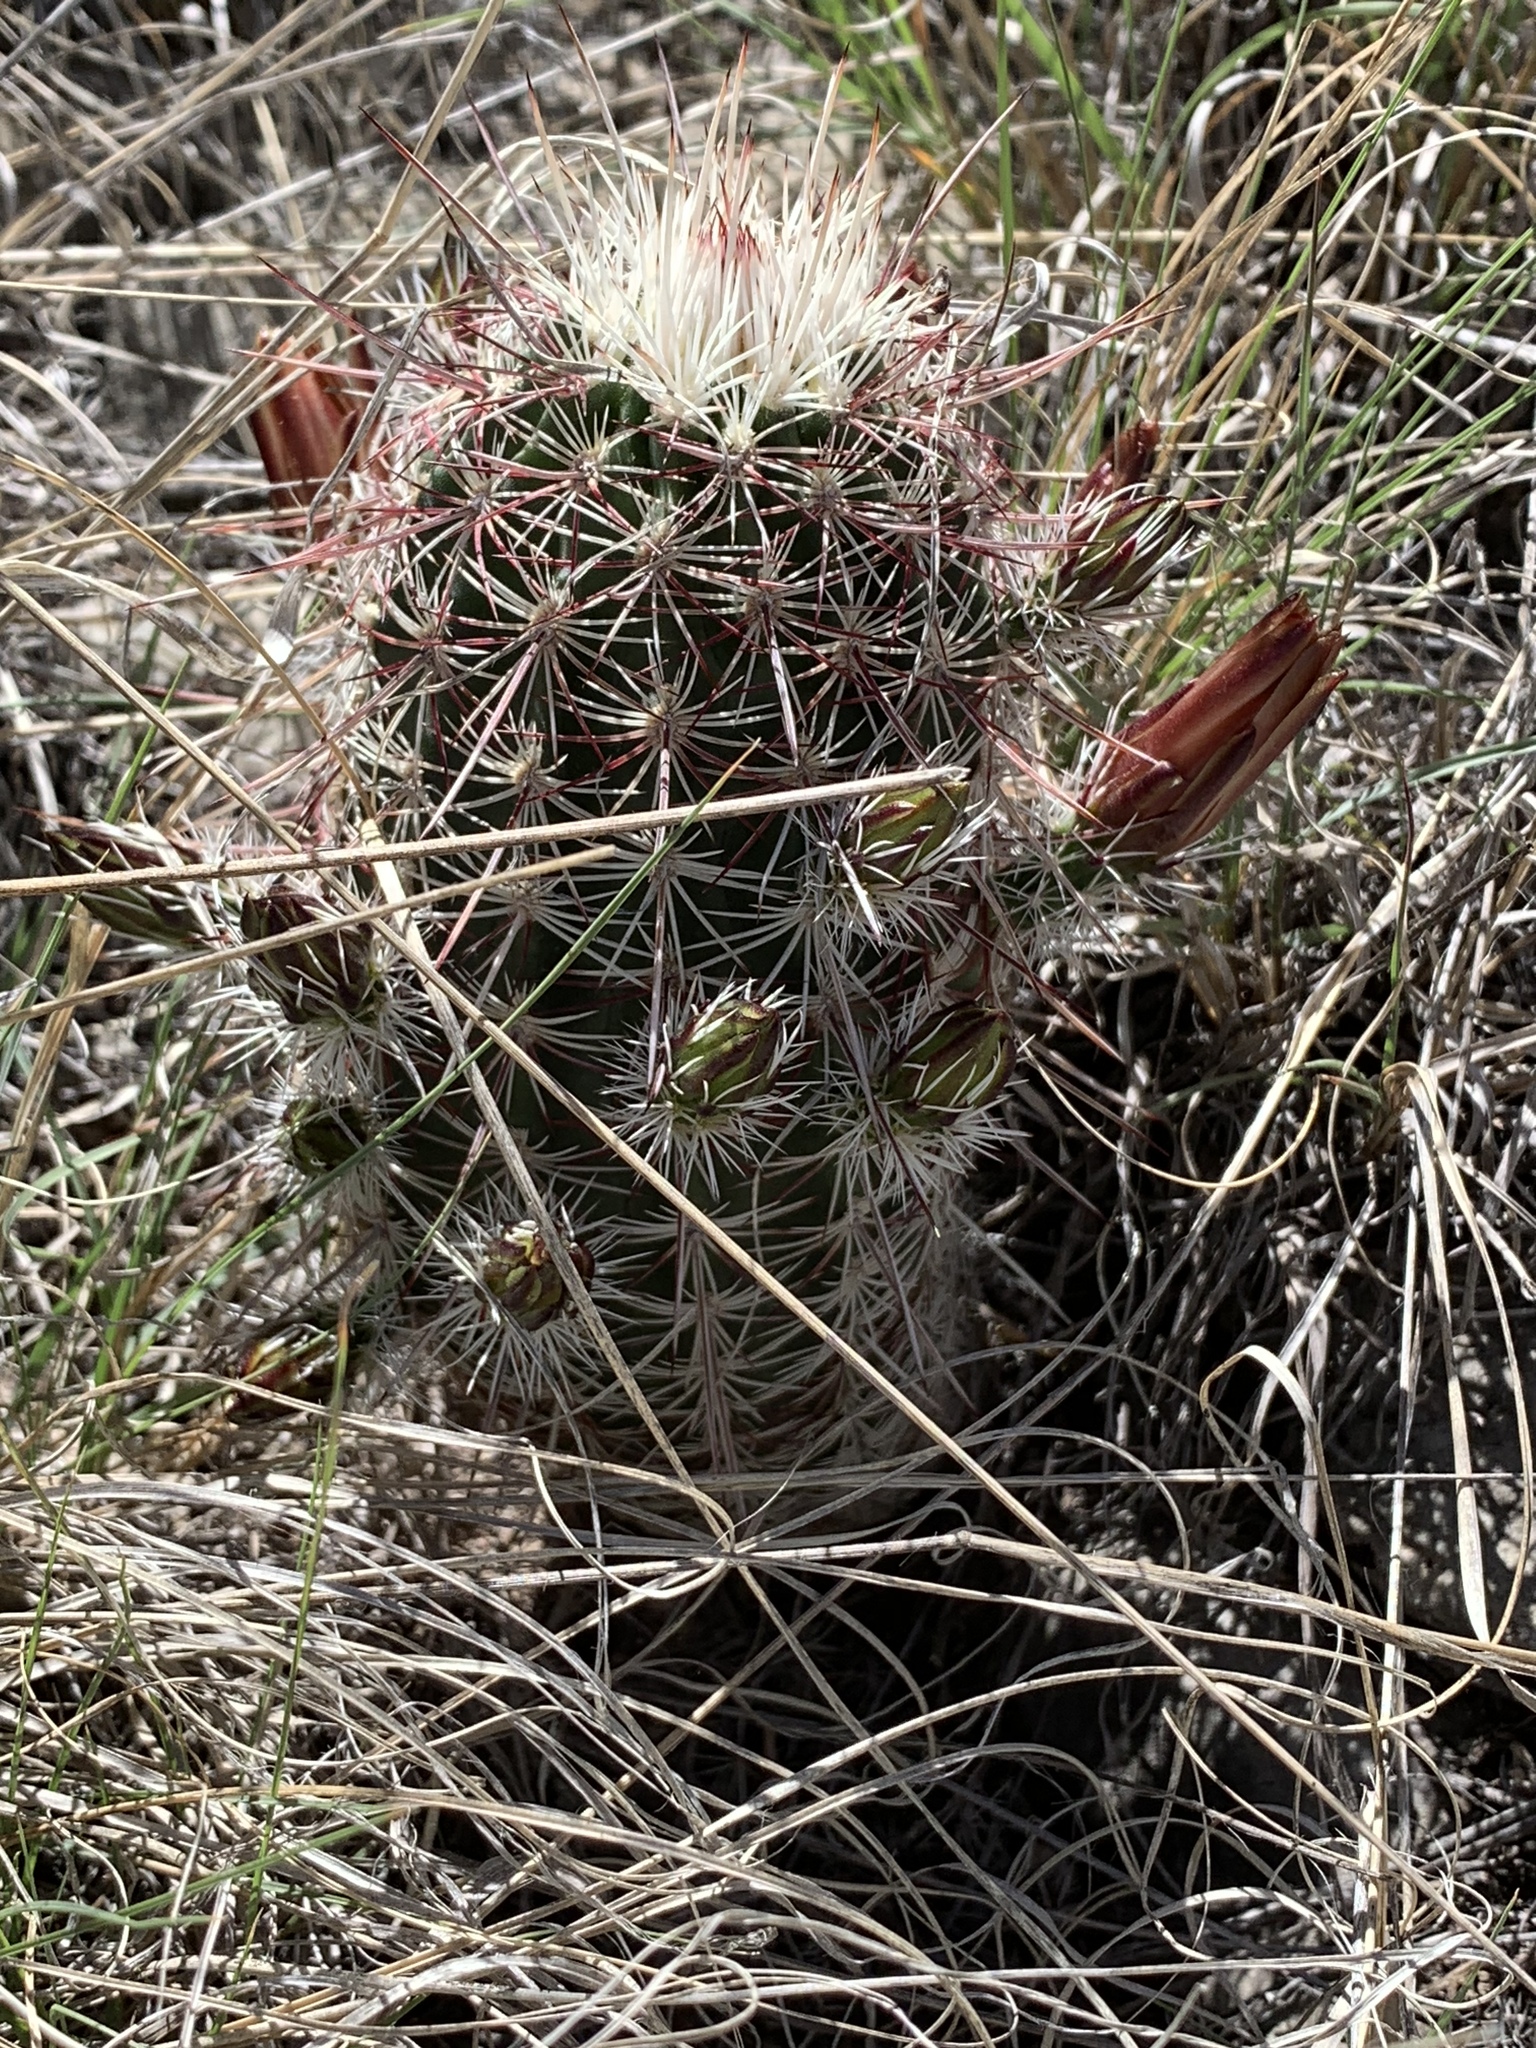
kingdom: Plantae
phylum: Tracheophyta
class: Magnoliopsida
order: Caryophyllales
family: Cactaceae
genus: Echinocereus
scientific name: Echinocereus viridiflorus
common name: Nylon hedgehog cactus
